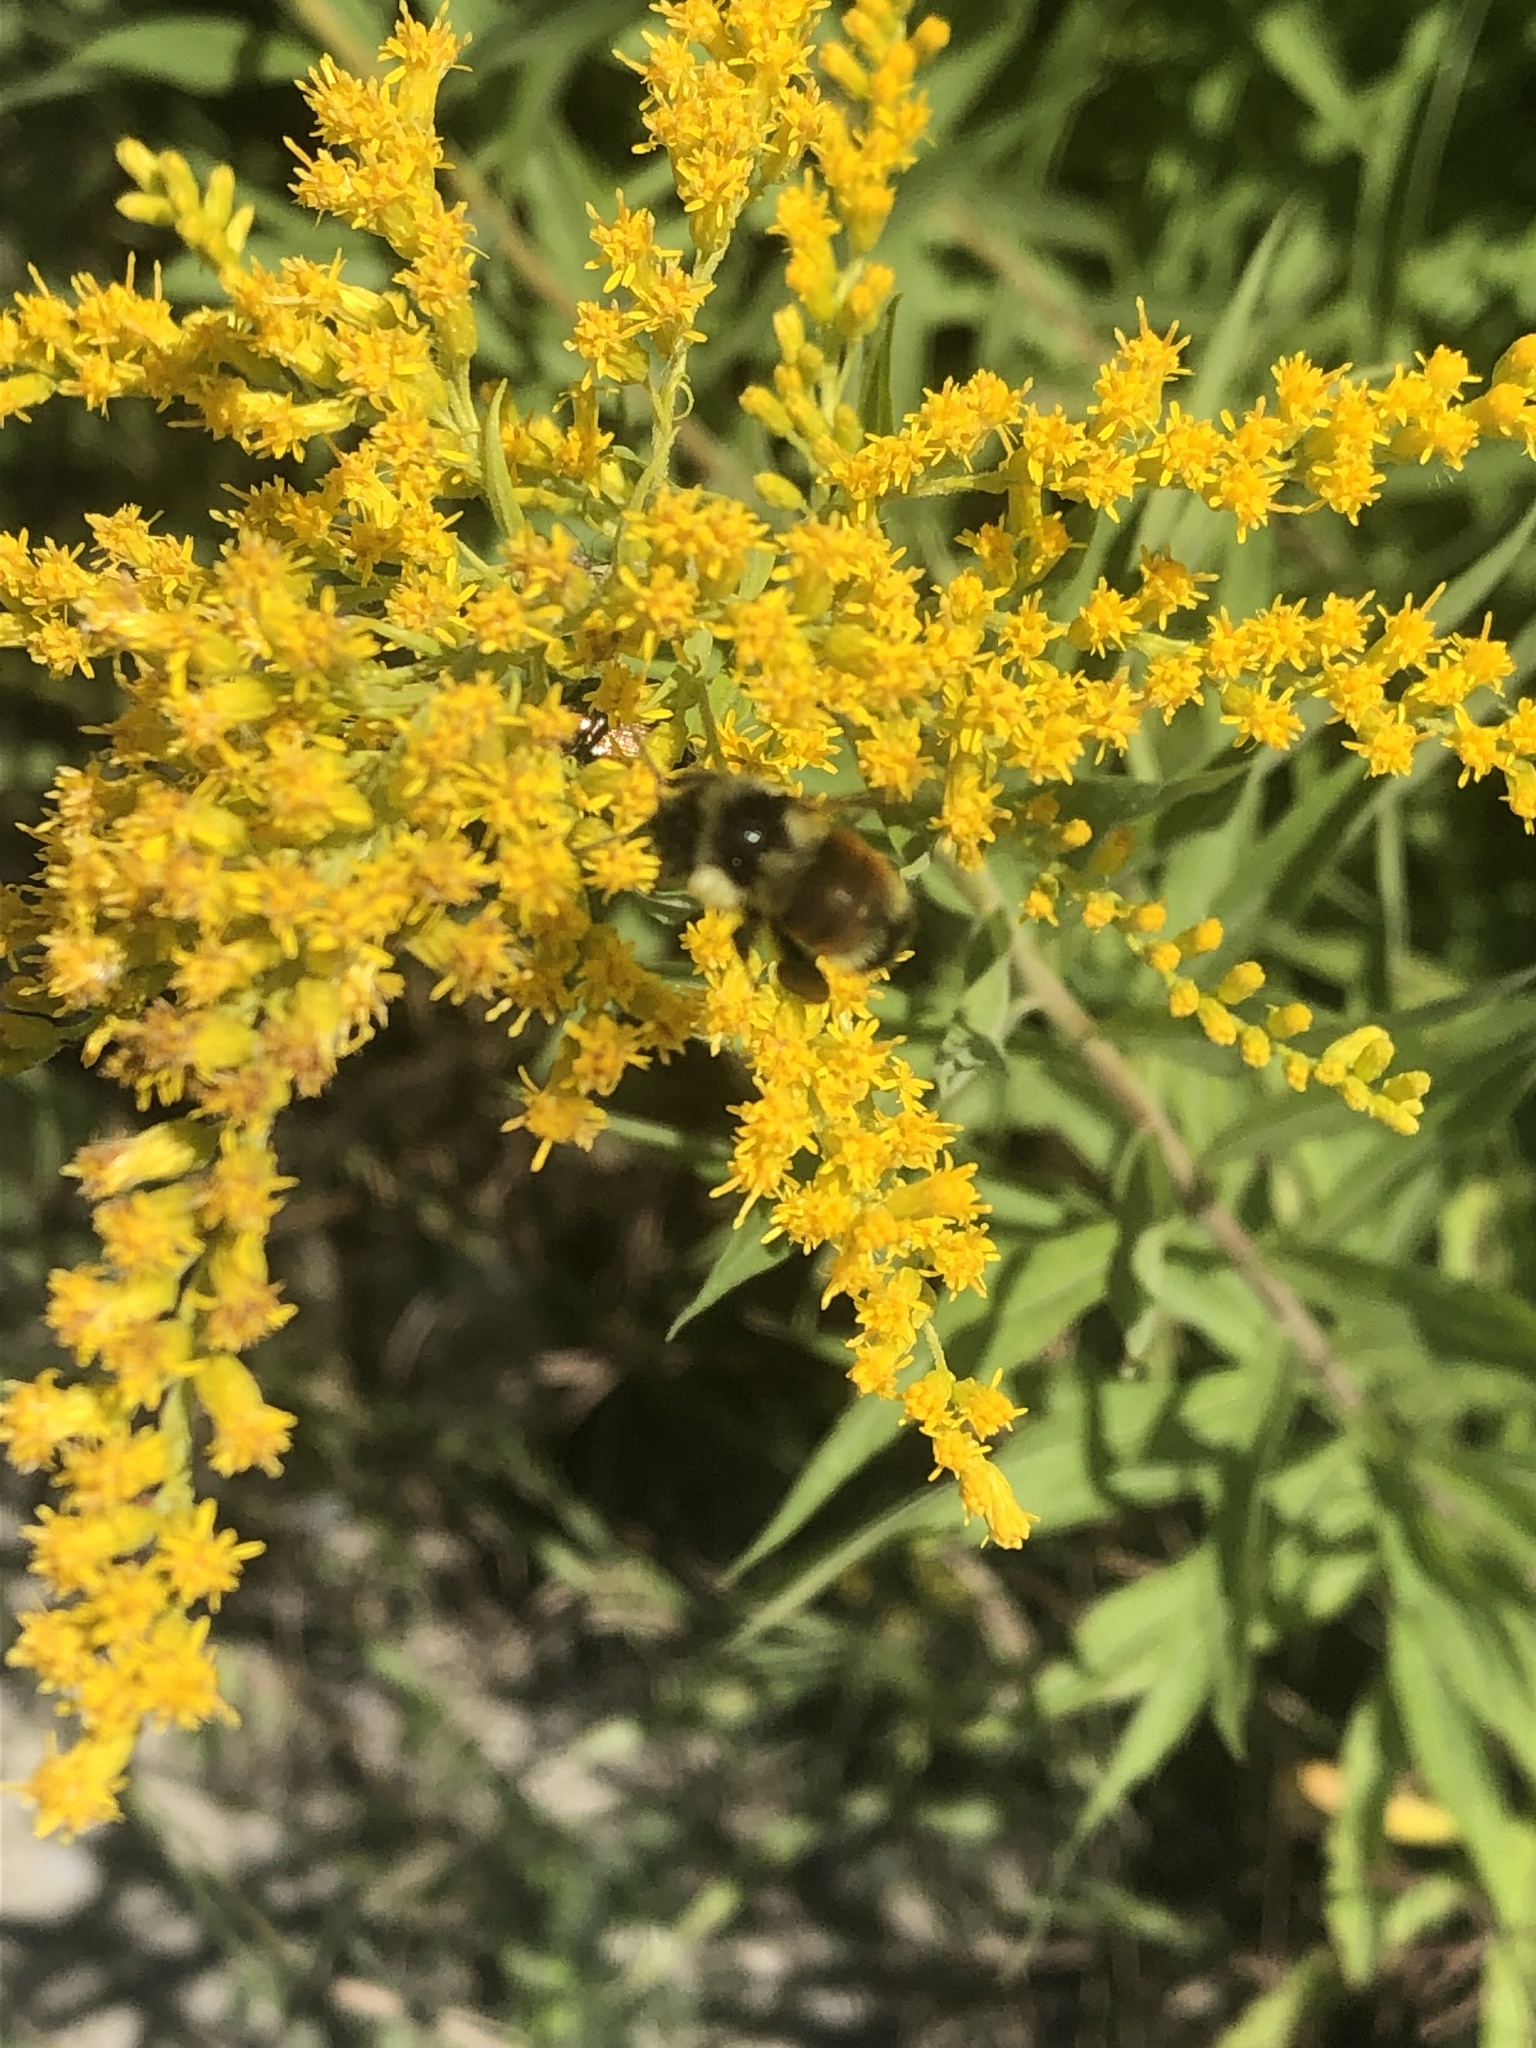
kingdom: Animalia
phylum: Arthropoda
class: Insecta
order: Hymenoptera
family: Apidae
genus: Bombus
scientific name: Bombus ternarius
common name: Tri-colored bumble bee
